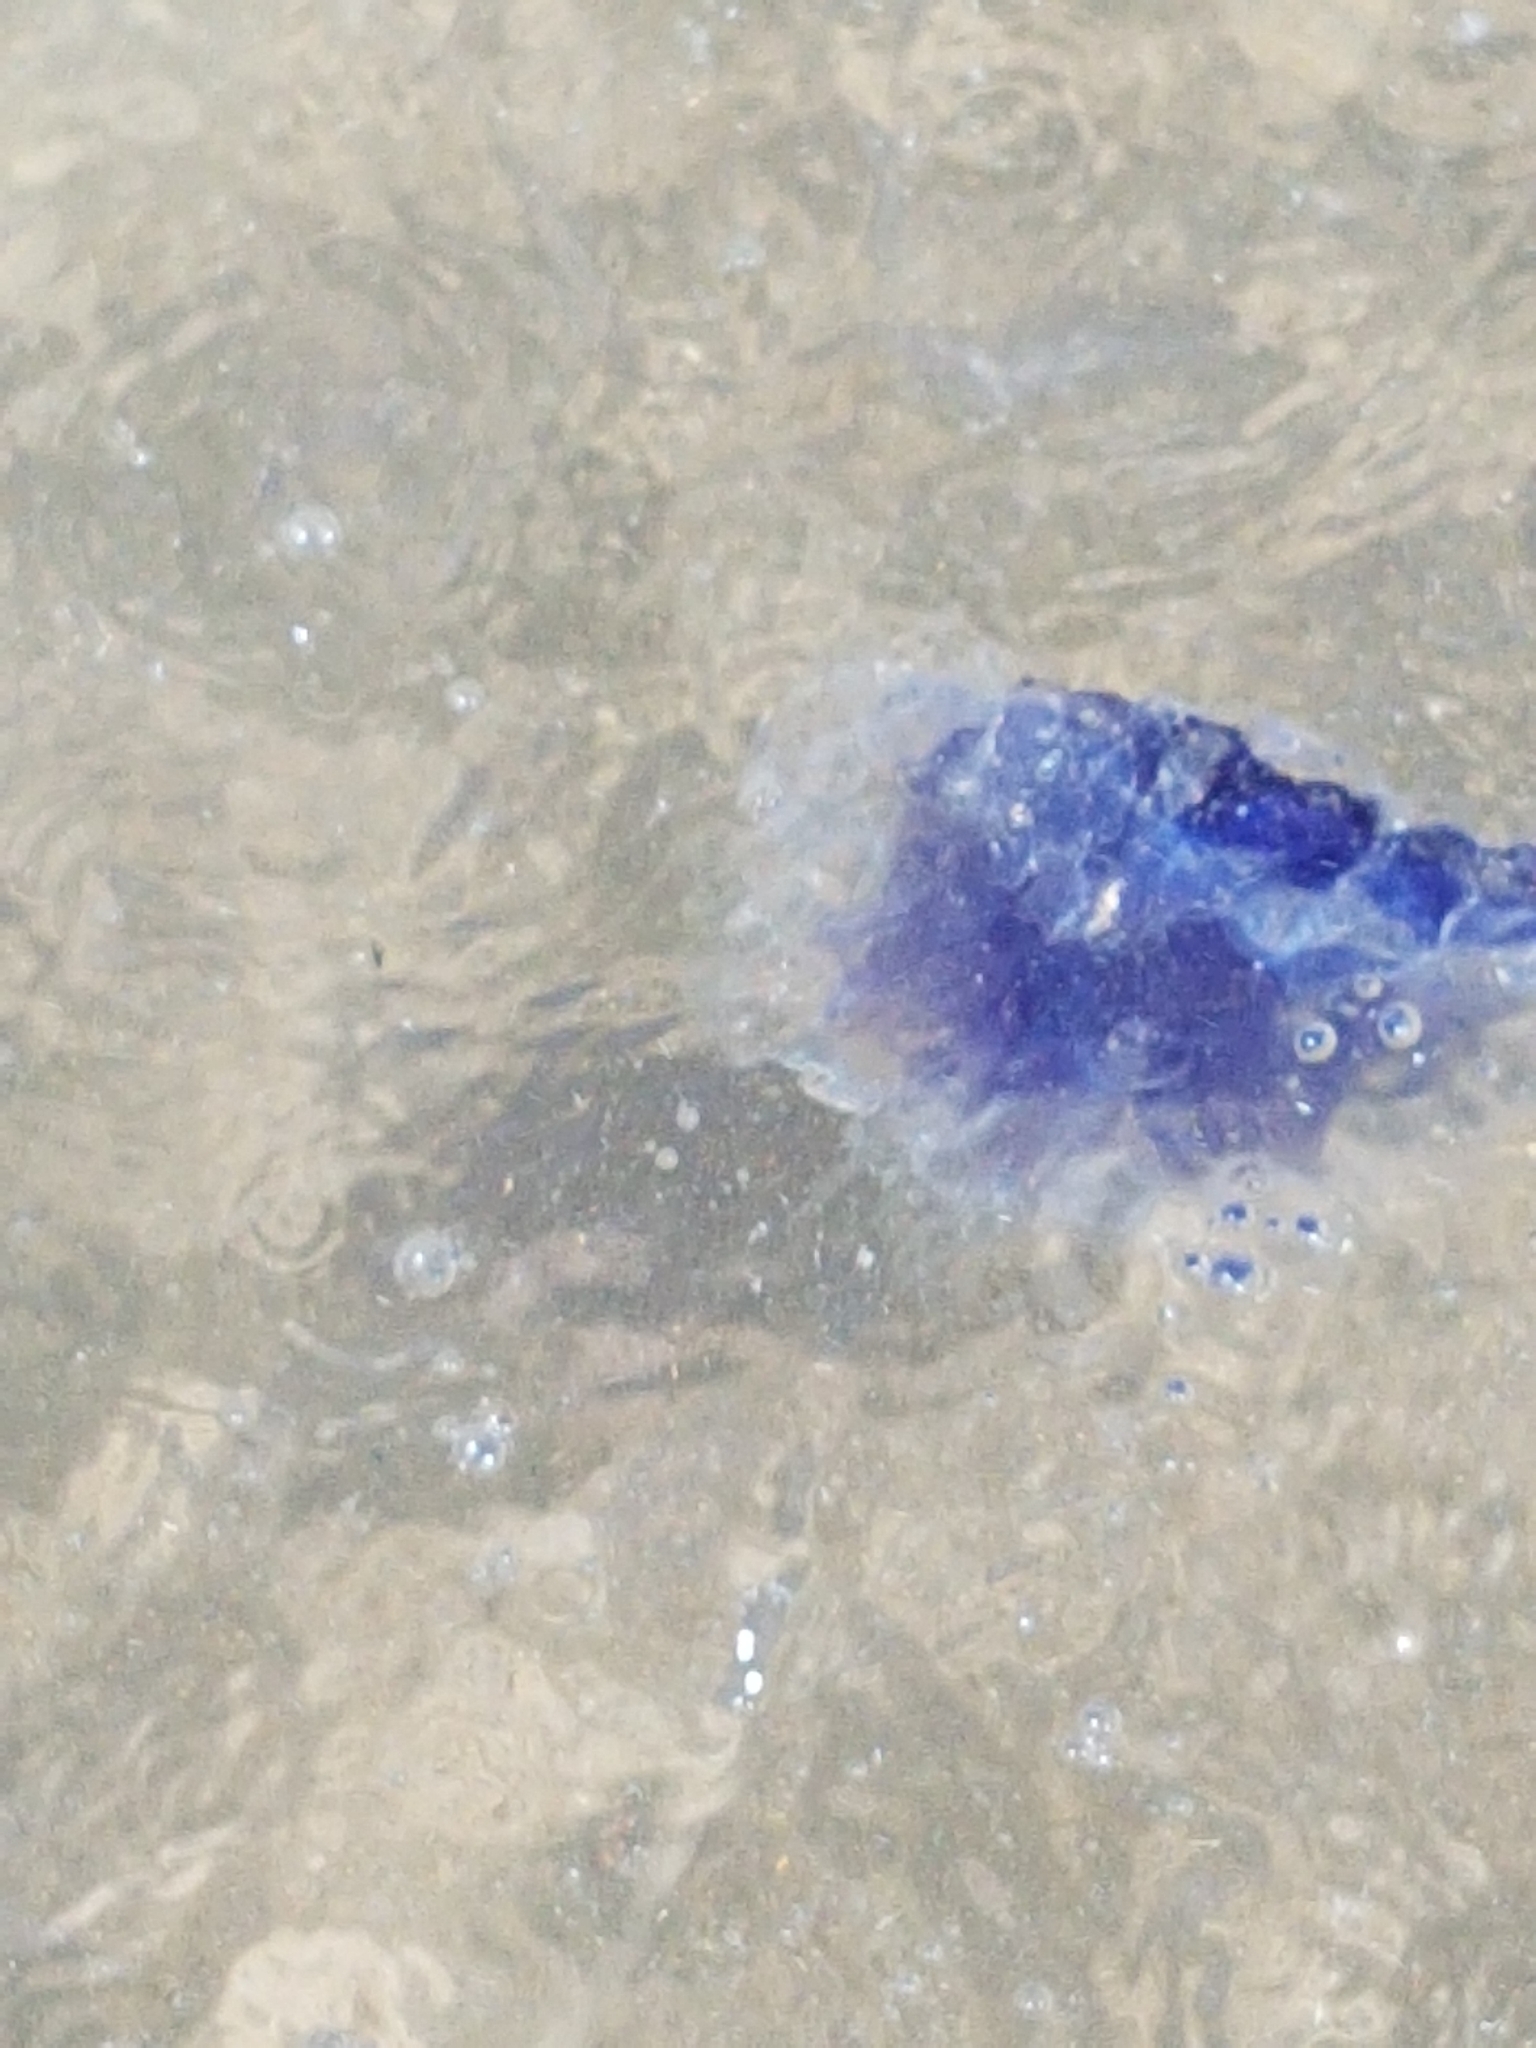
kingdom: Animalia
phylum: Cnidaria
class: Scyphozoa
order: Semaeostomeae
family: Cyaneidae
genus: Cyanea
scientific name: Cyanea lamarckii
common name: Blue jellyfish
